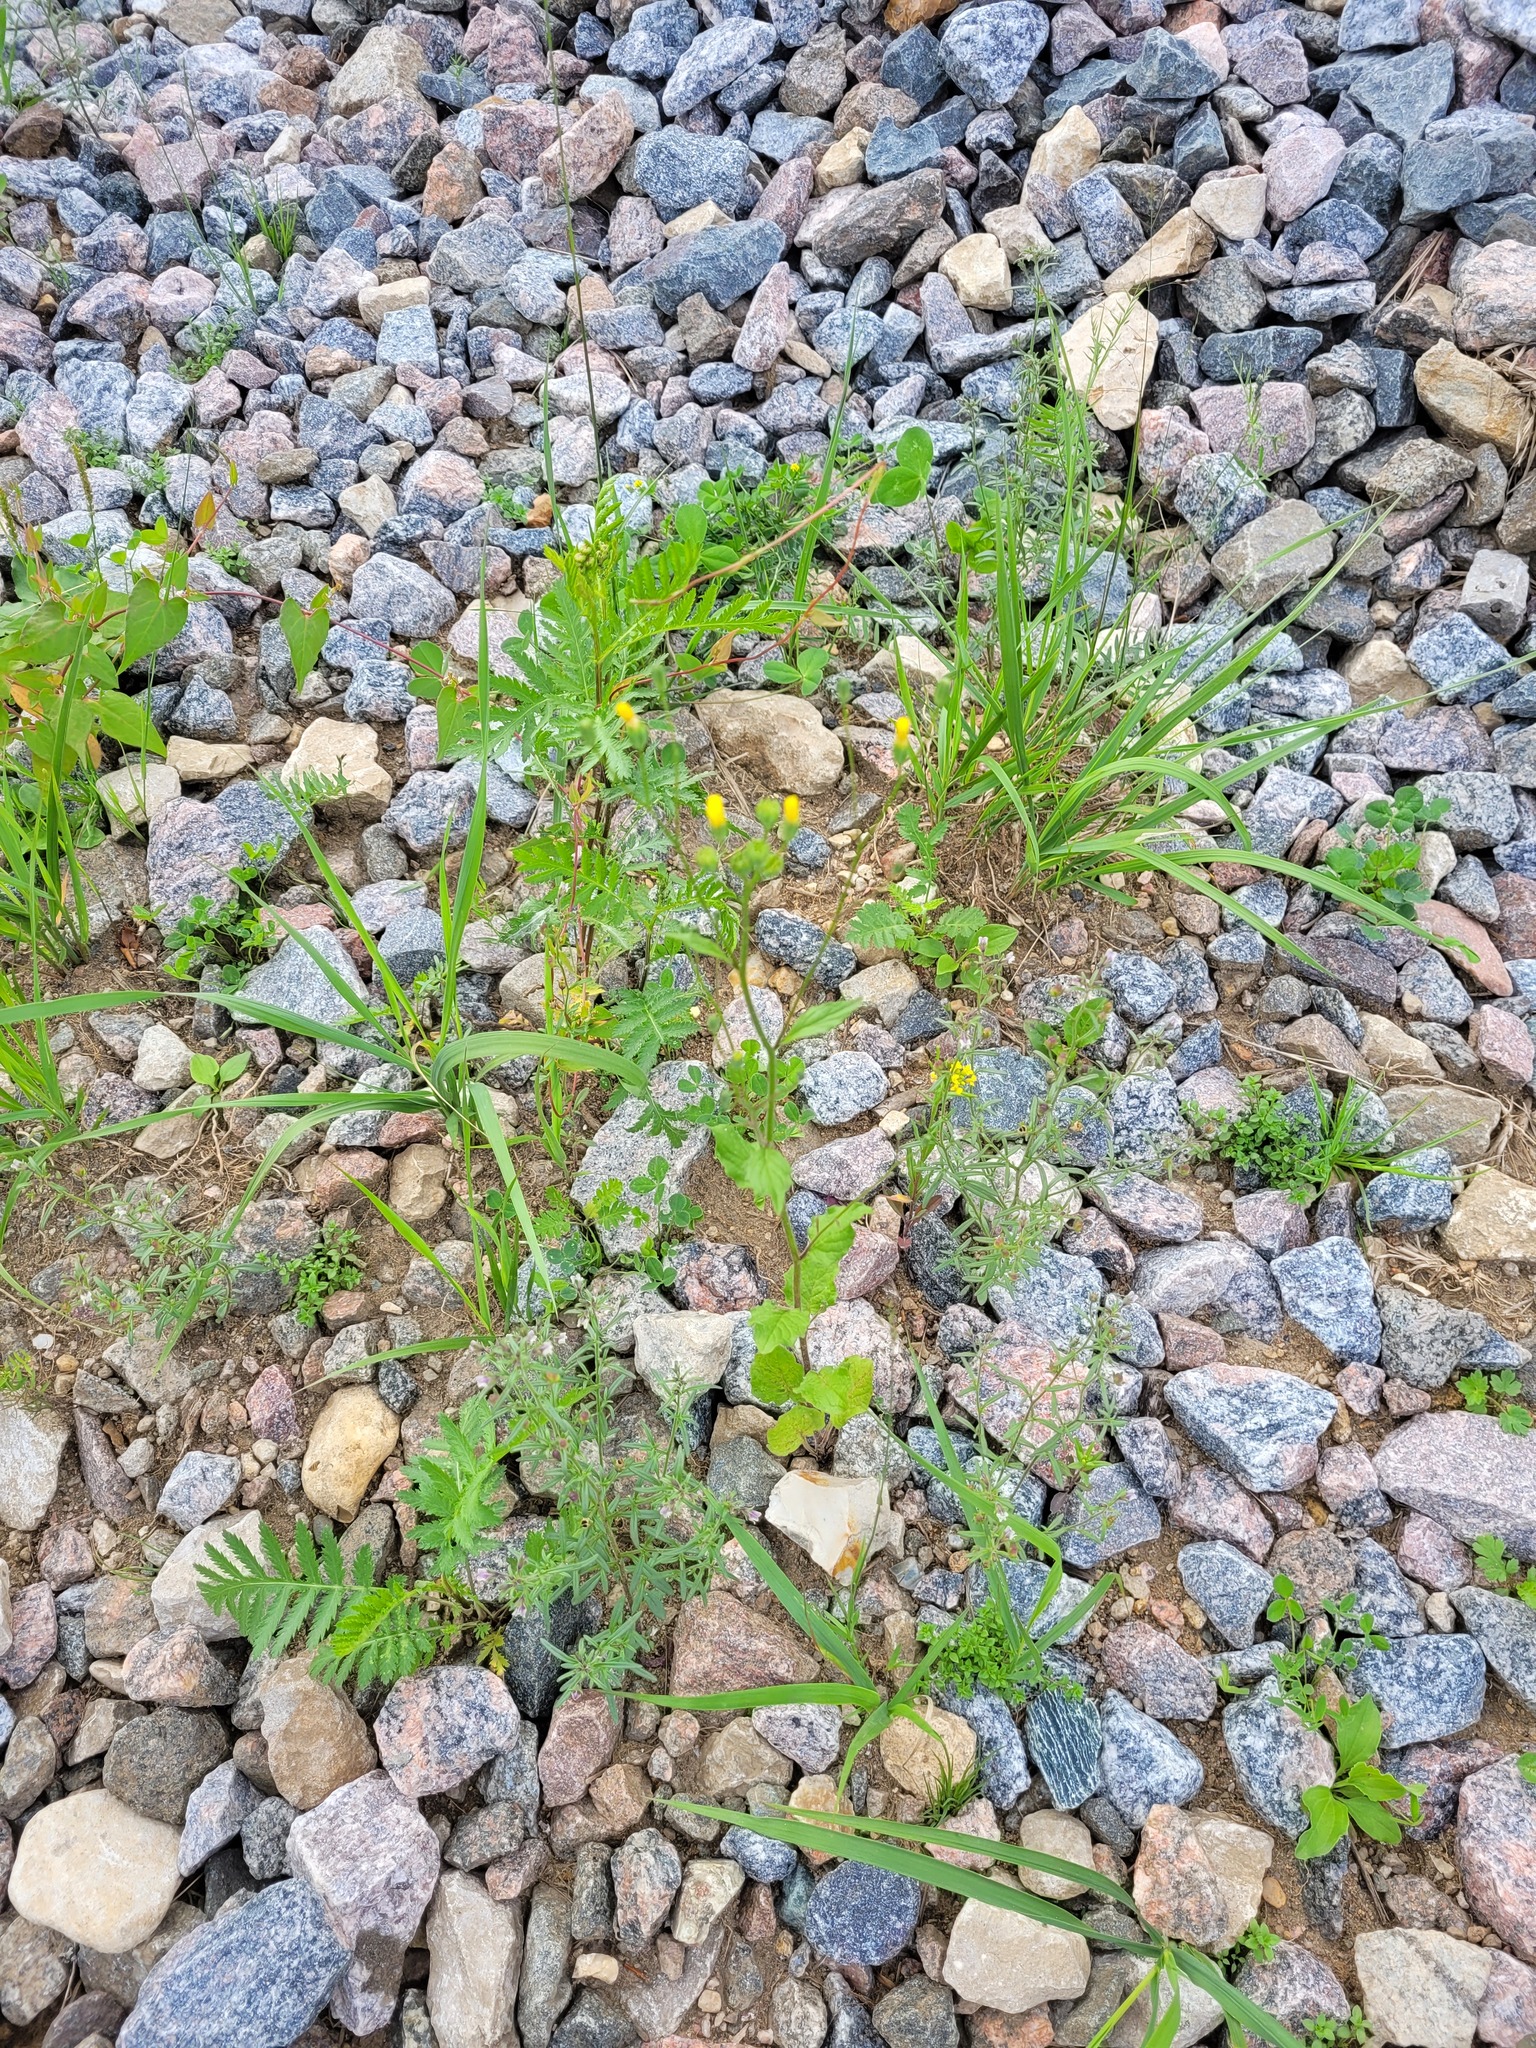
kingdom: Plantae
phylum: Tracheophyta
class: Magnoliopsida
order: Asterales
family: Asteraceae
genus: Lapsana
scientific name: Lapsana communis
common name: Nipplewort
